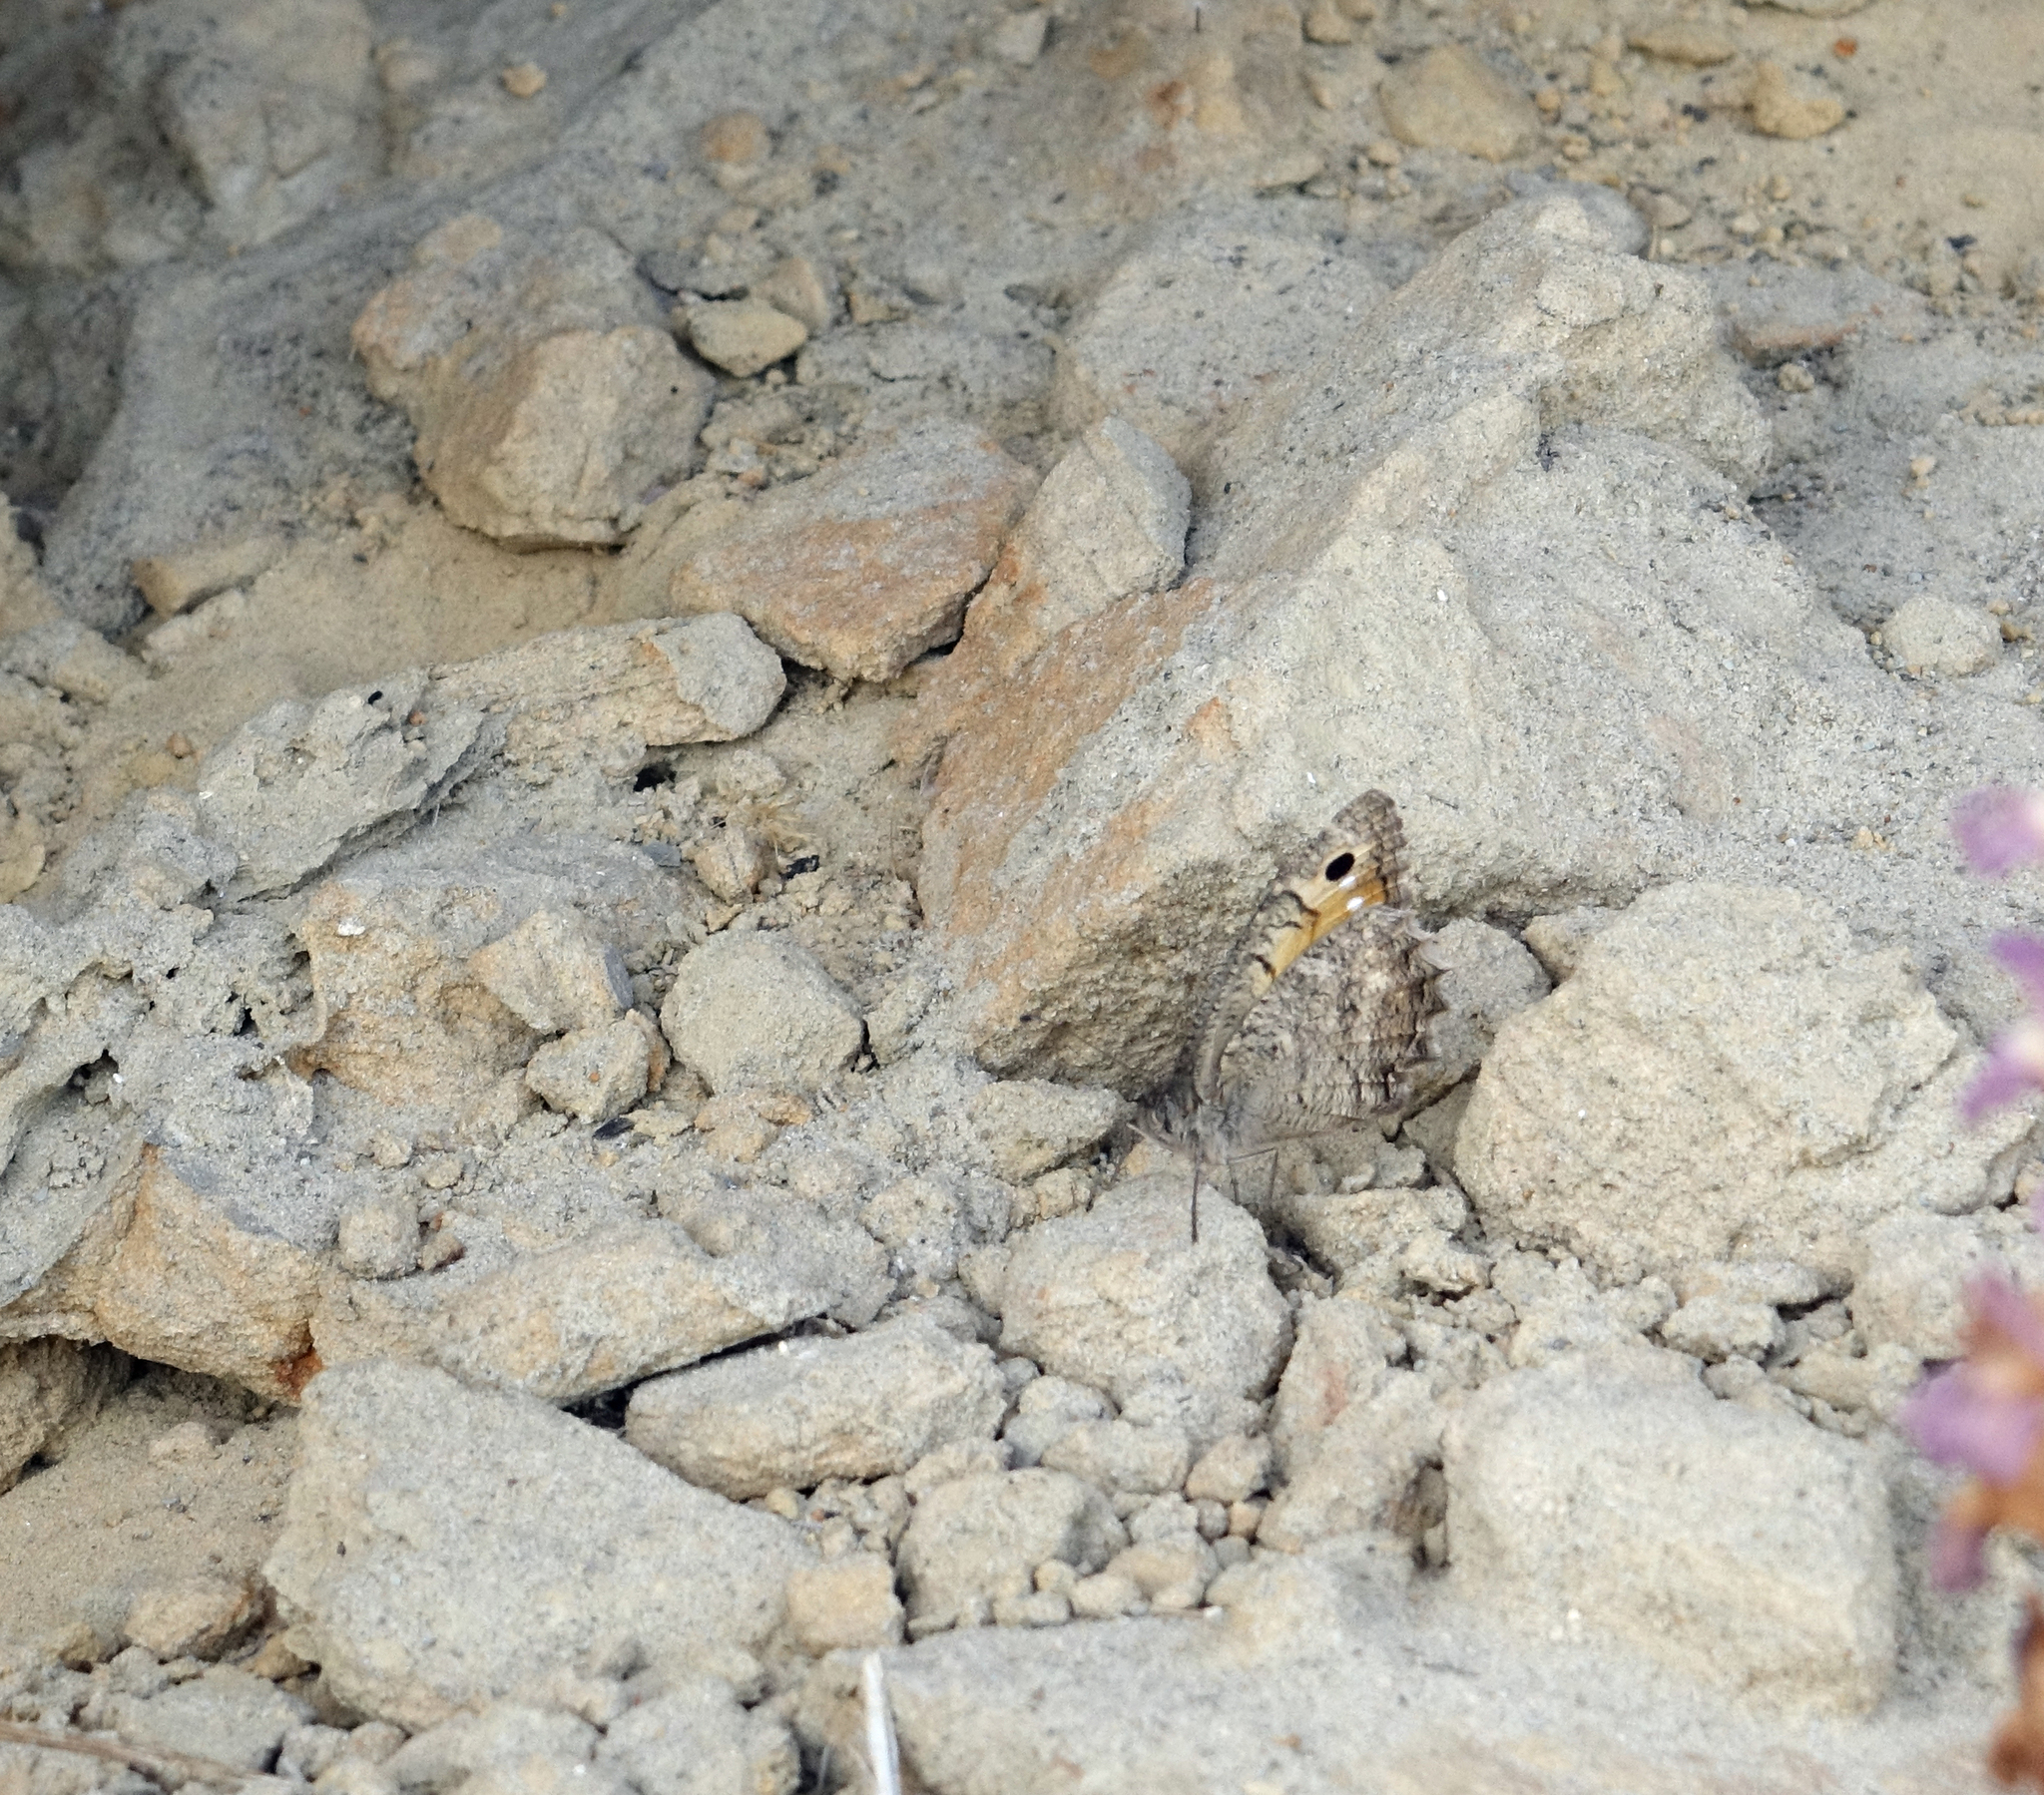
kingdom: Animalia
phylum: Arthropoda
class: Insecta
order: Lepidoptera
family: Nymphalidae
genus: Pseudochazara
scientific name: Pseudochazara pelopea
